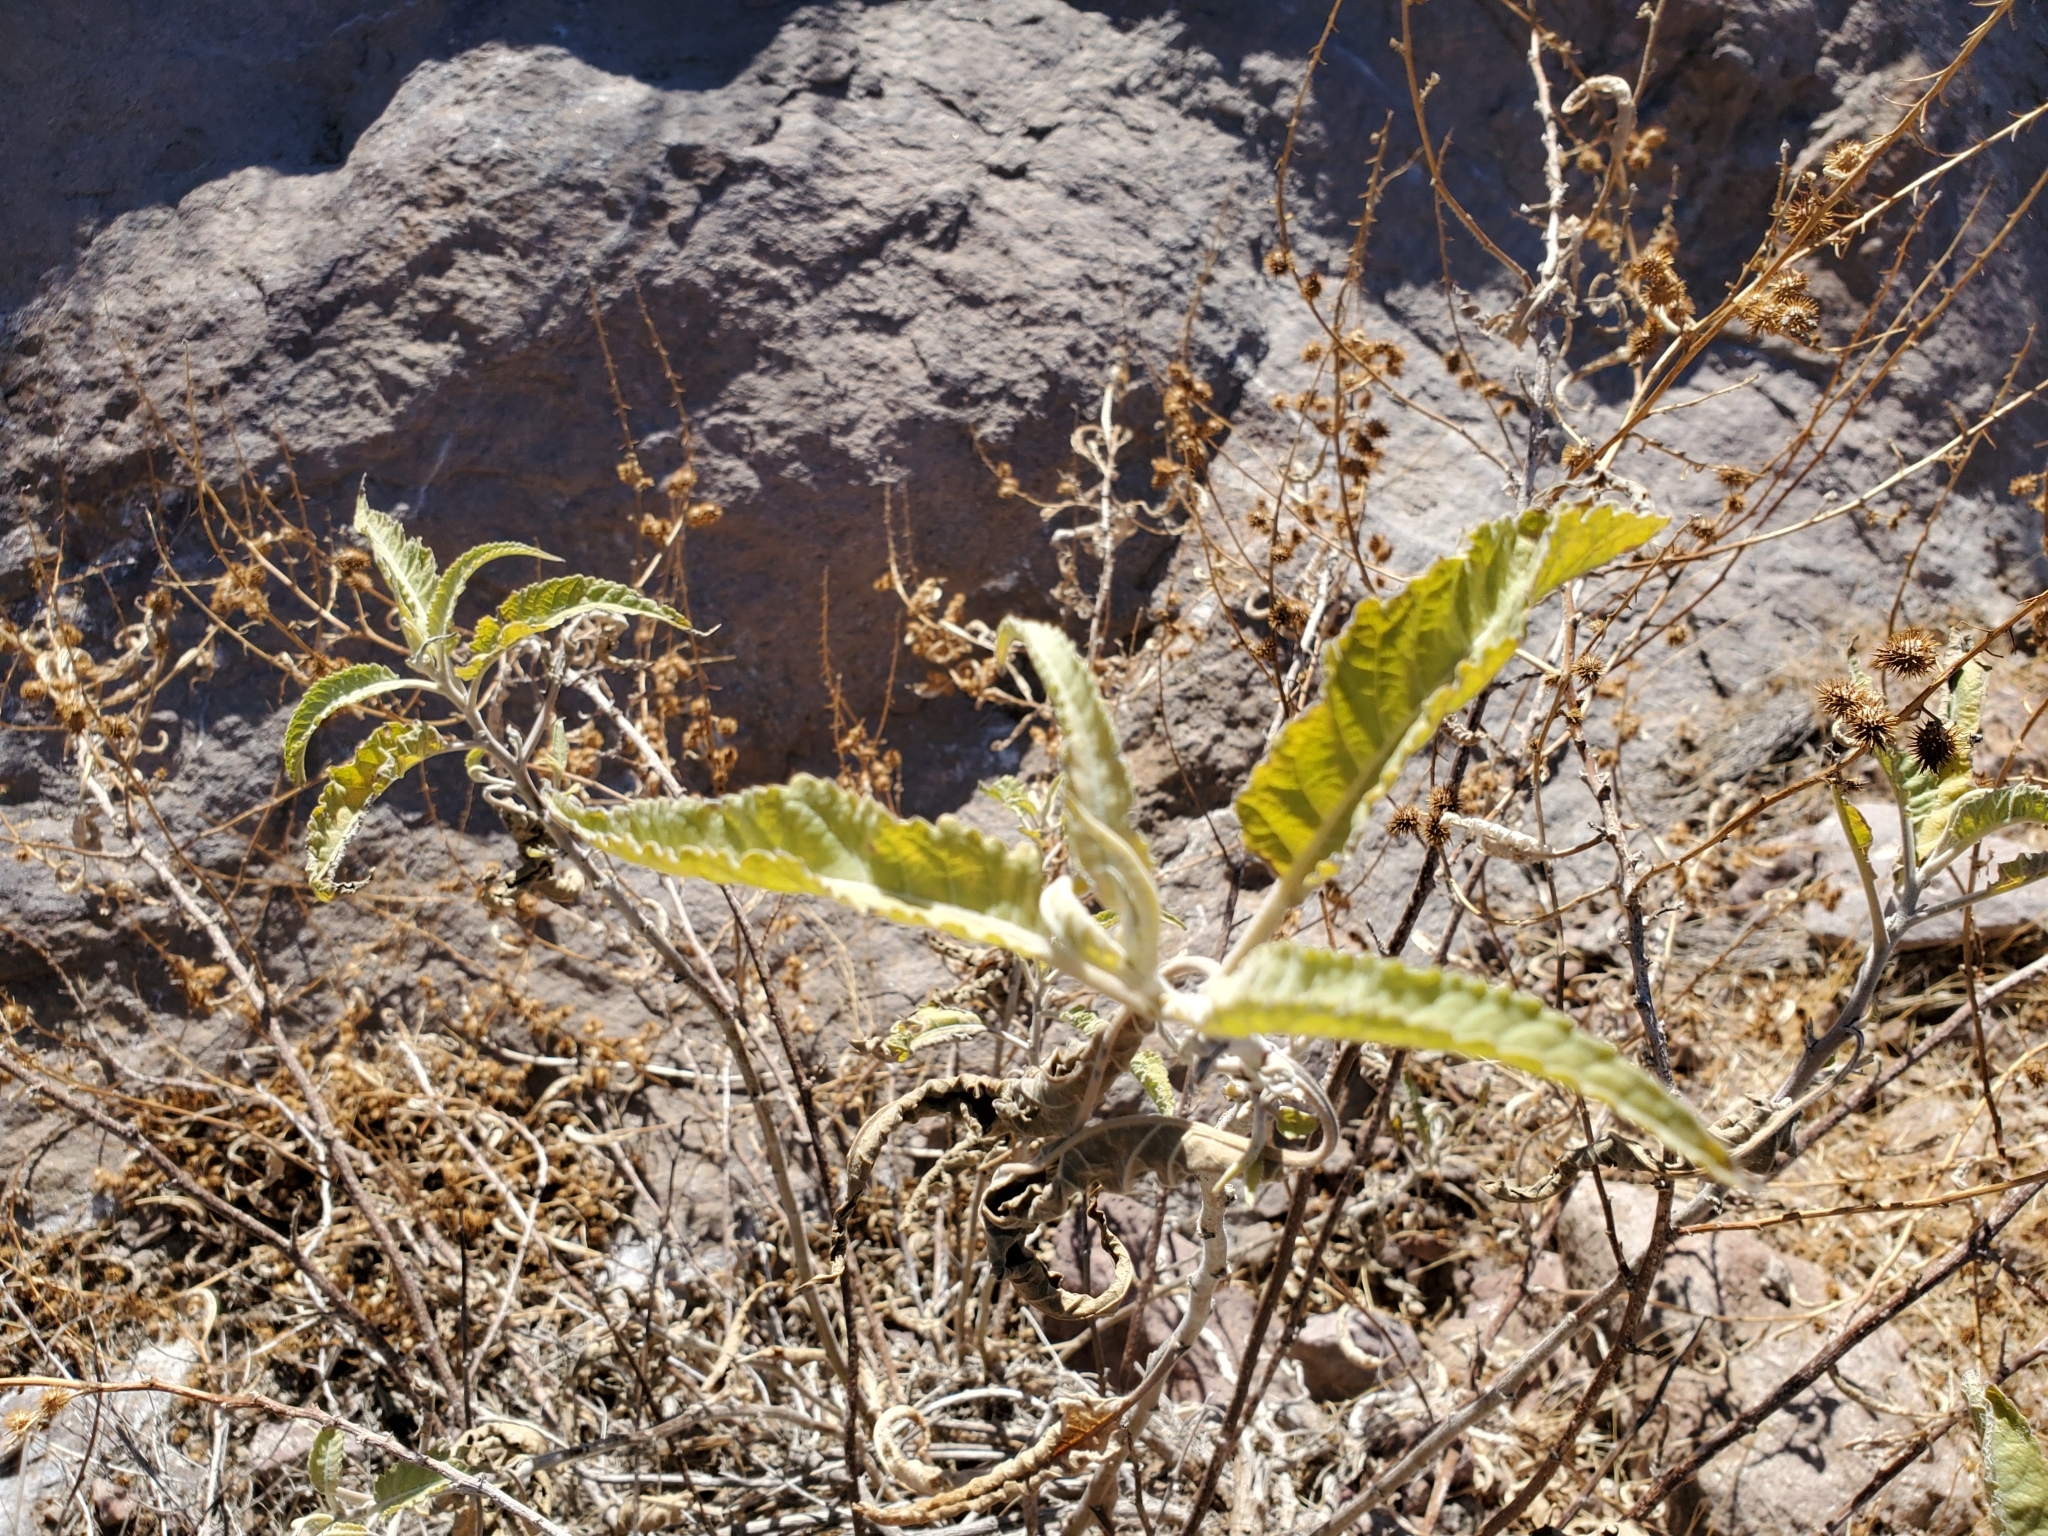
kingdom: Plantae
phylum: Tracheophyta
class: Magnoliopsida
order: Asterales
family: Asteraceae
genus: Ambrosia
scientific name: Ambrosia ambrosioides
